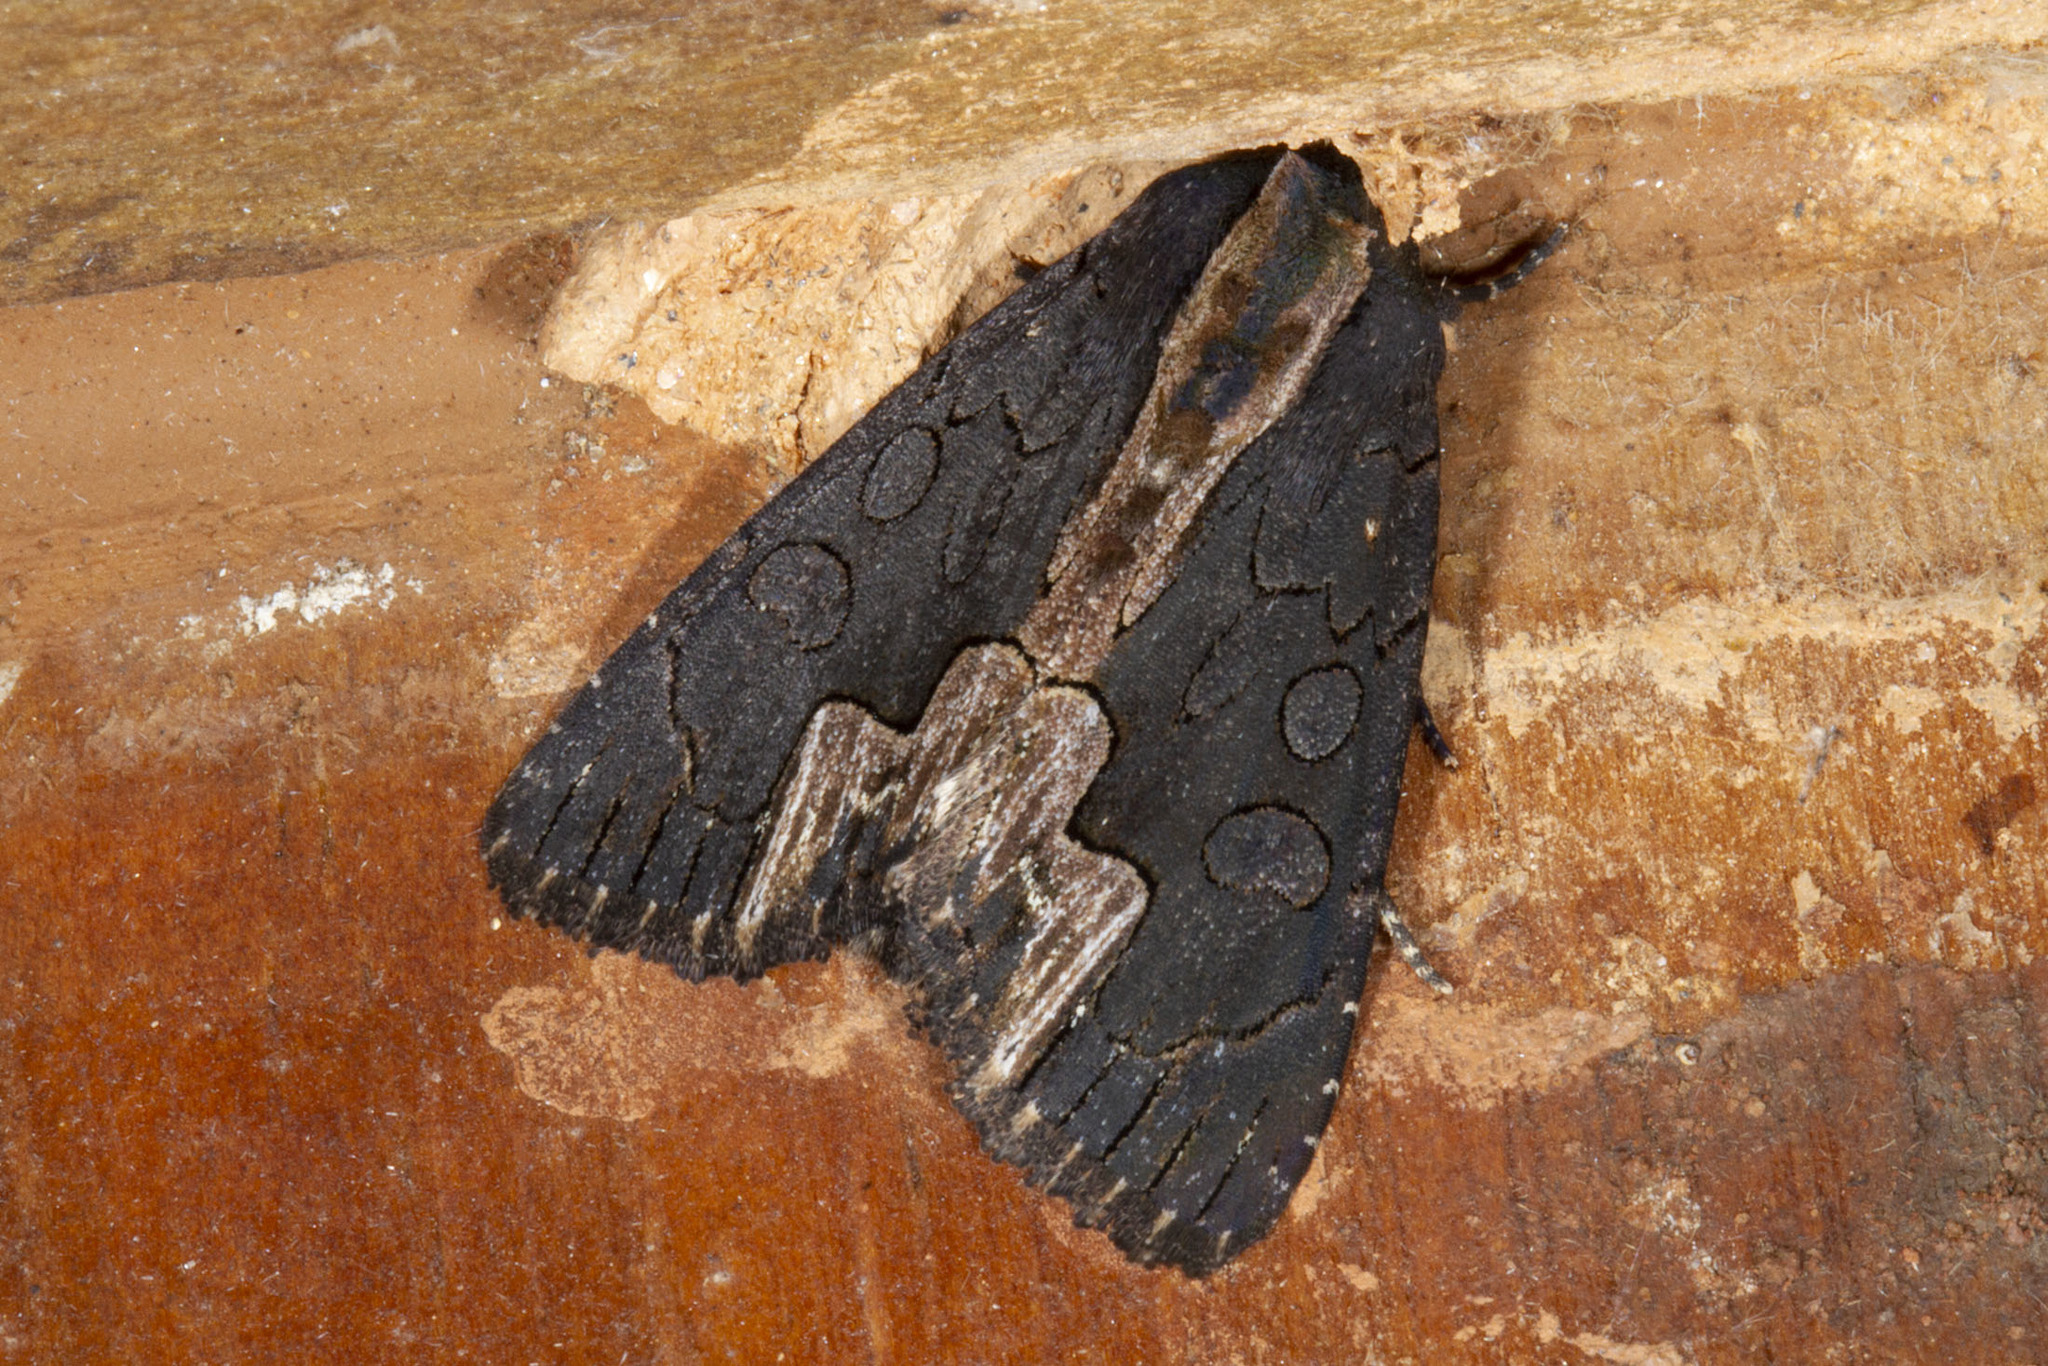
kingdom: Animalia
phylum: Arthropoda
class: Insecta
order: Lepidoptera
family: Noctuidae
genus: Dypterygia
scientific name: Dypterygia rozmani
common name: American bird's-wing
